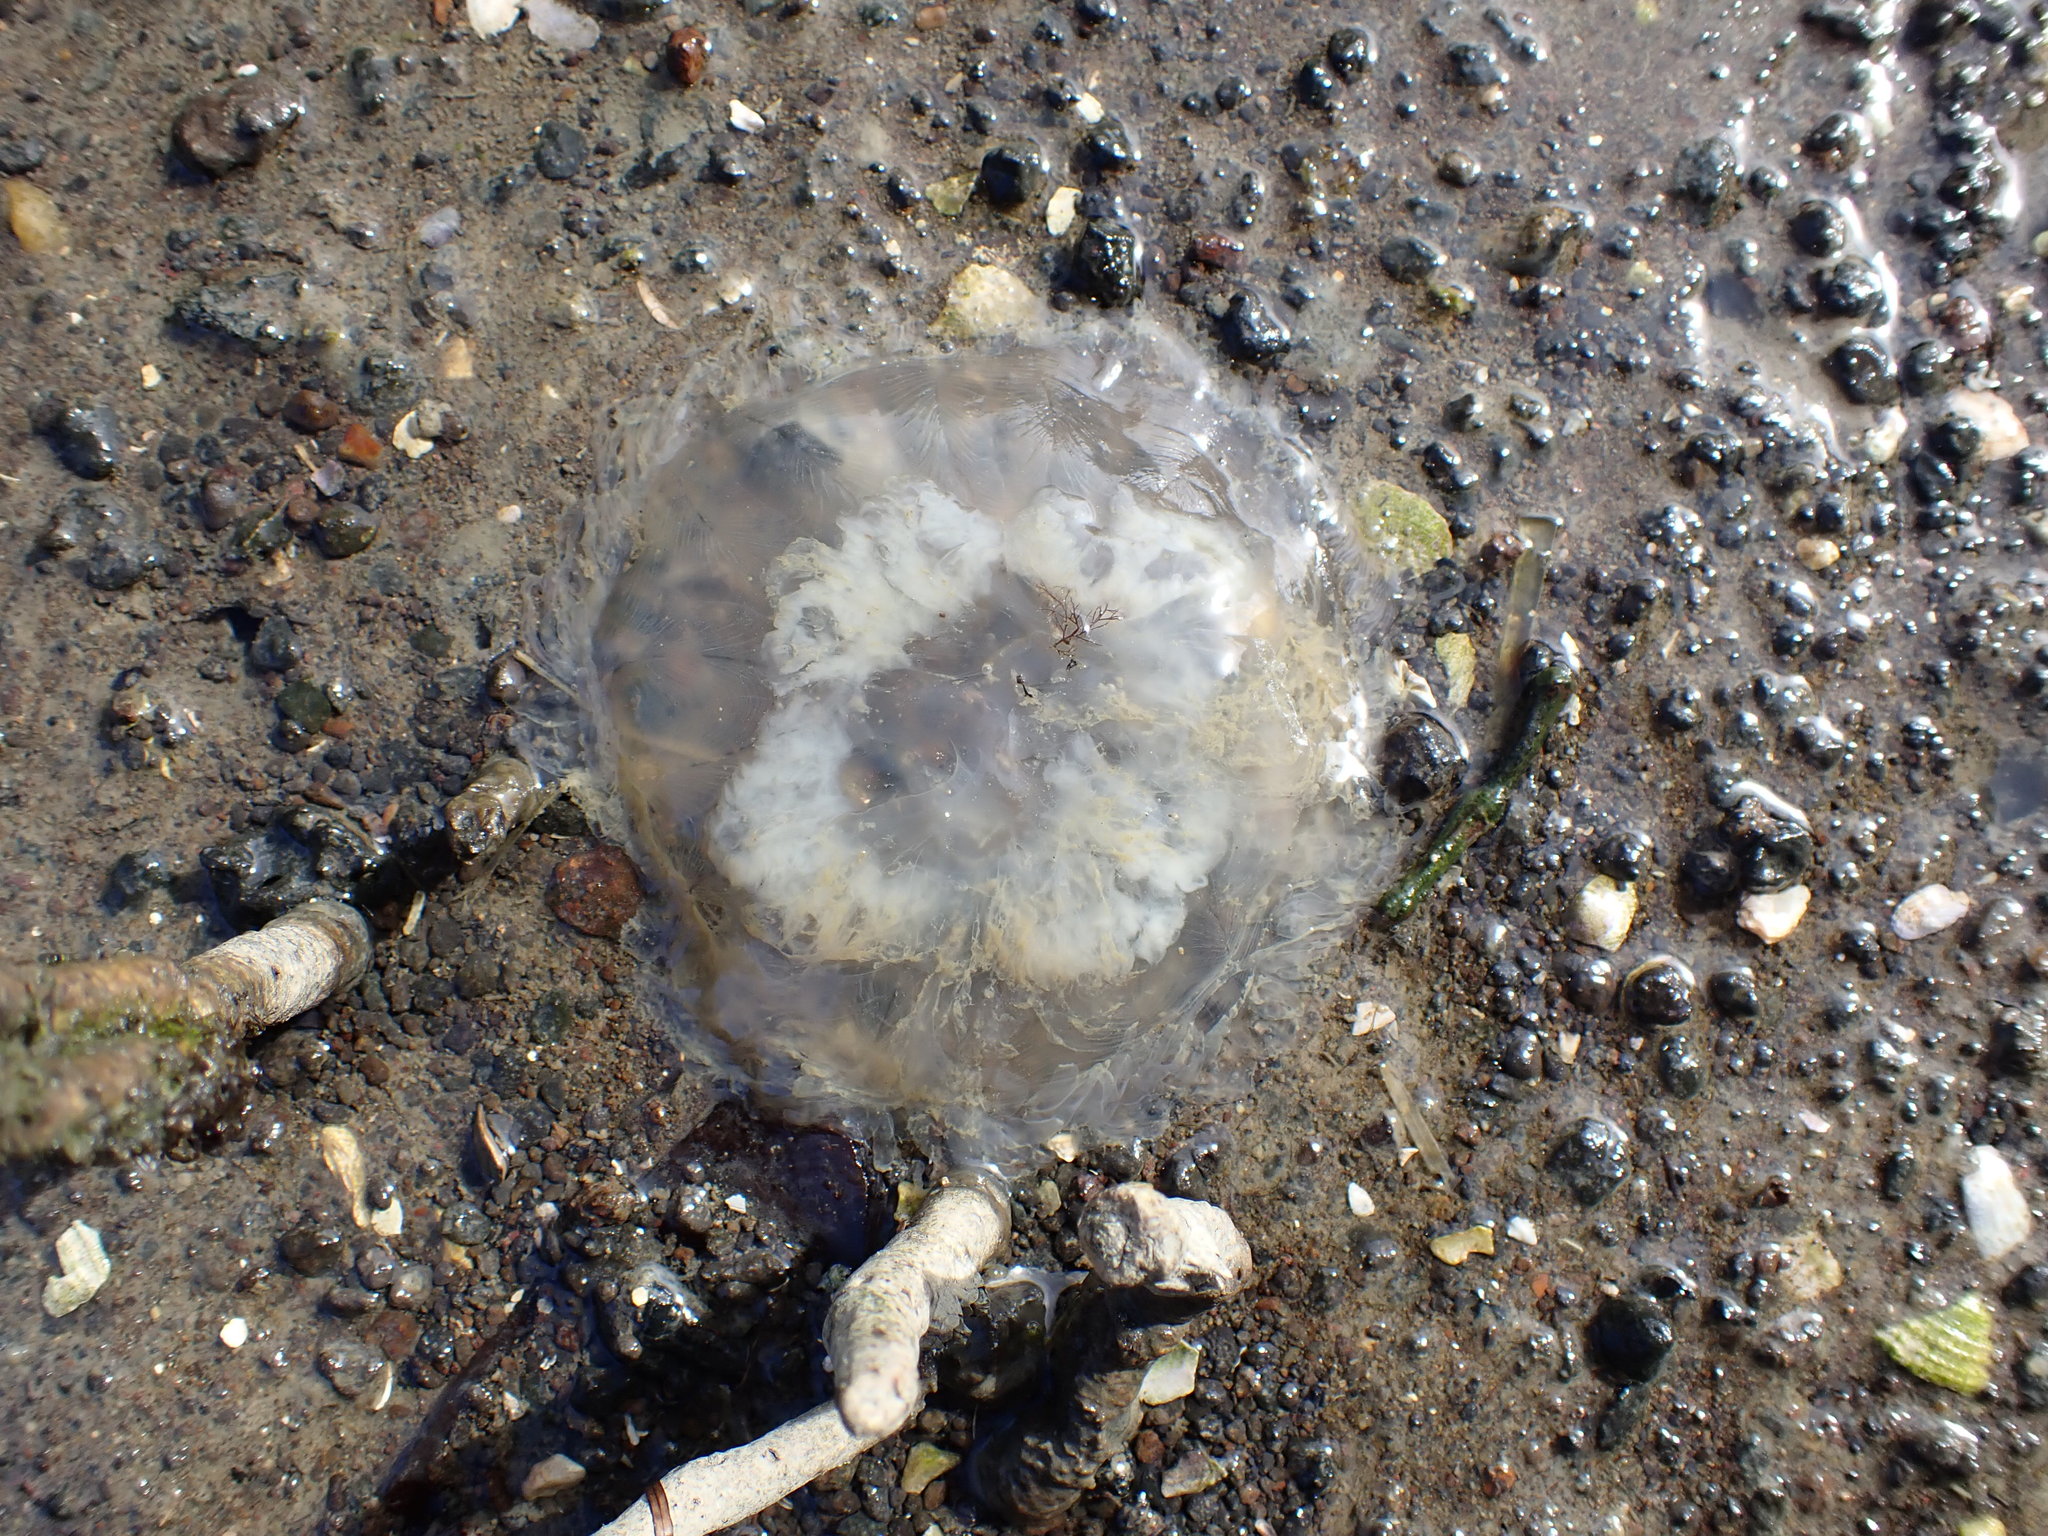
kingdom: Animalia
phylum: Cnidaria
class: Scyphozoa
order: Semaeostomeae
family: Cyaneidae
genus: Desmonema
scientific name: Desmonema gaudichaudi
